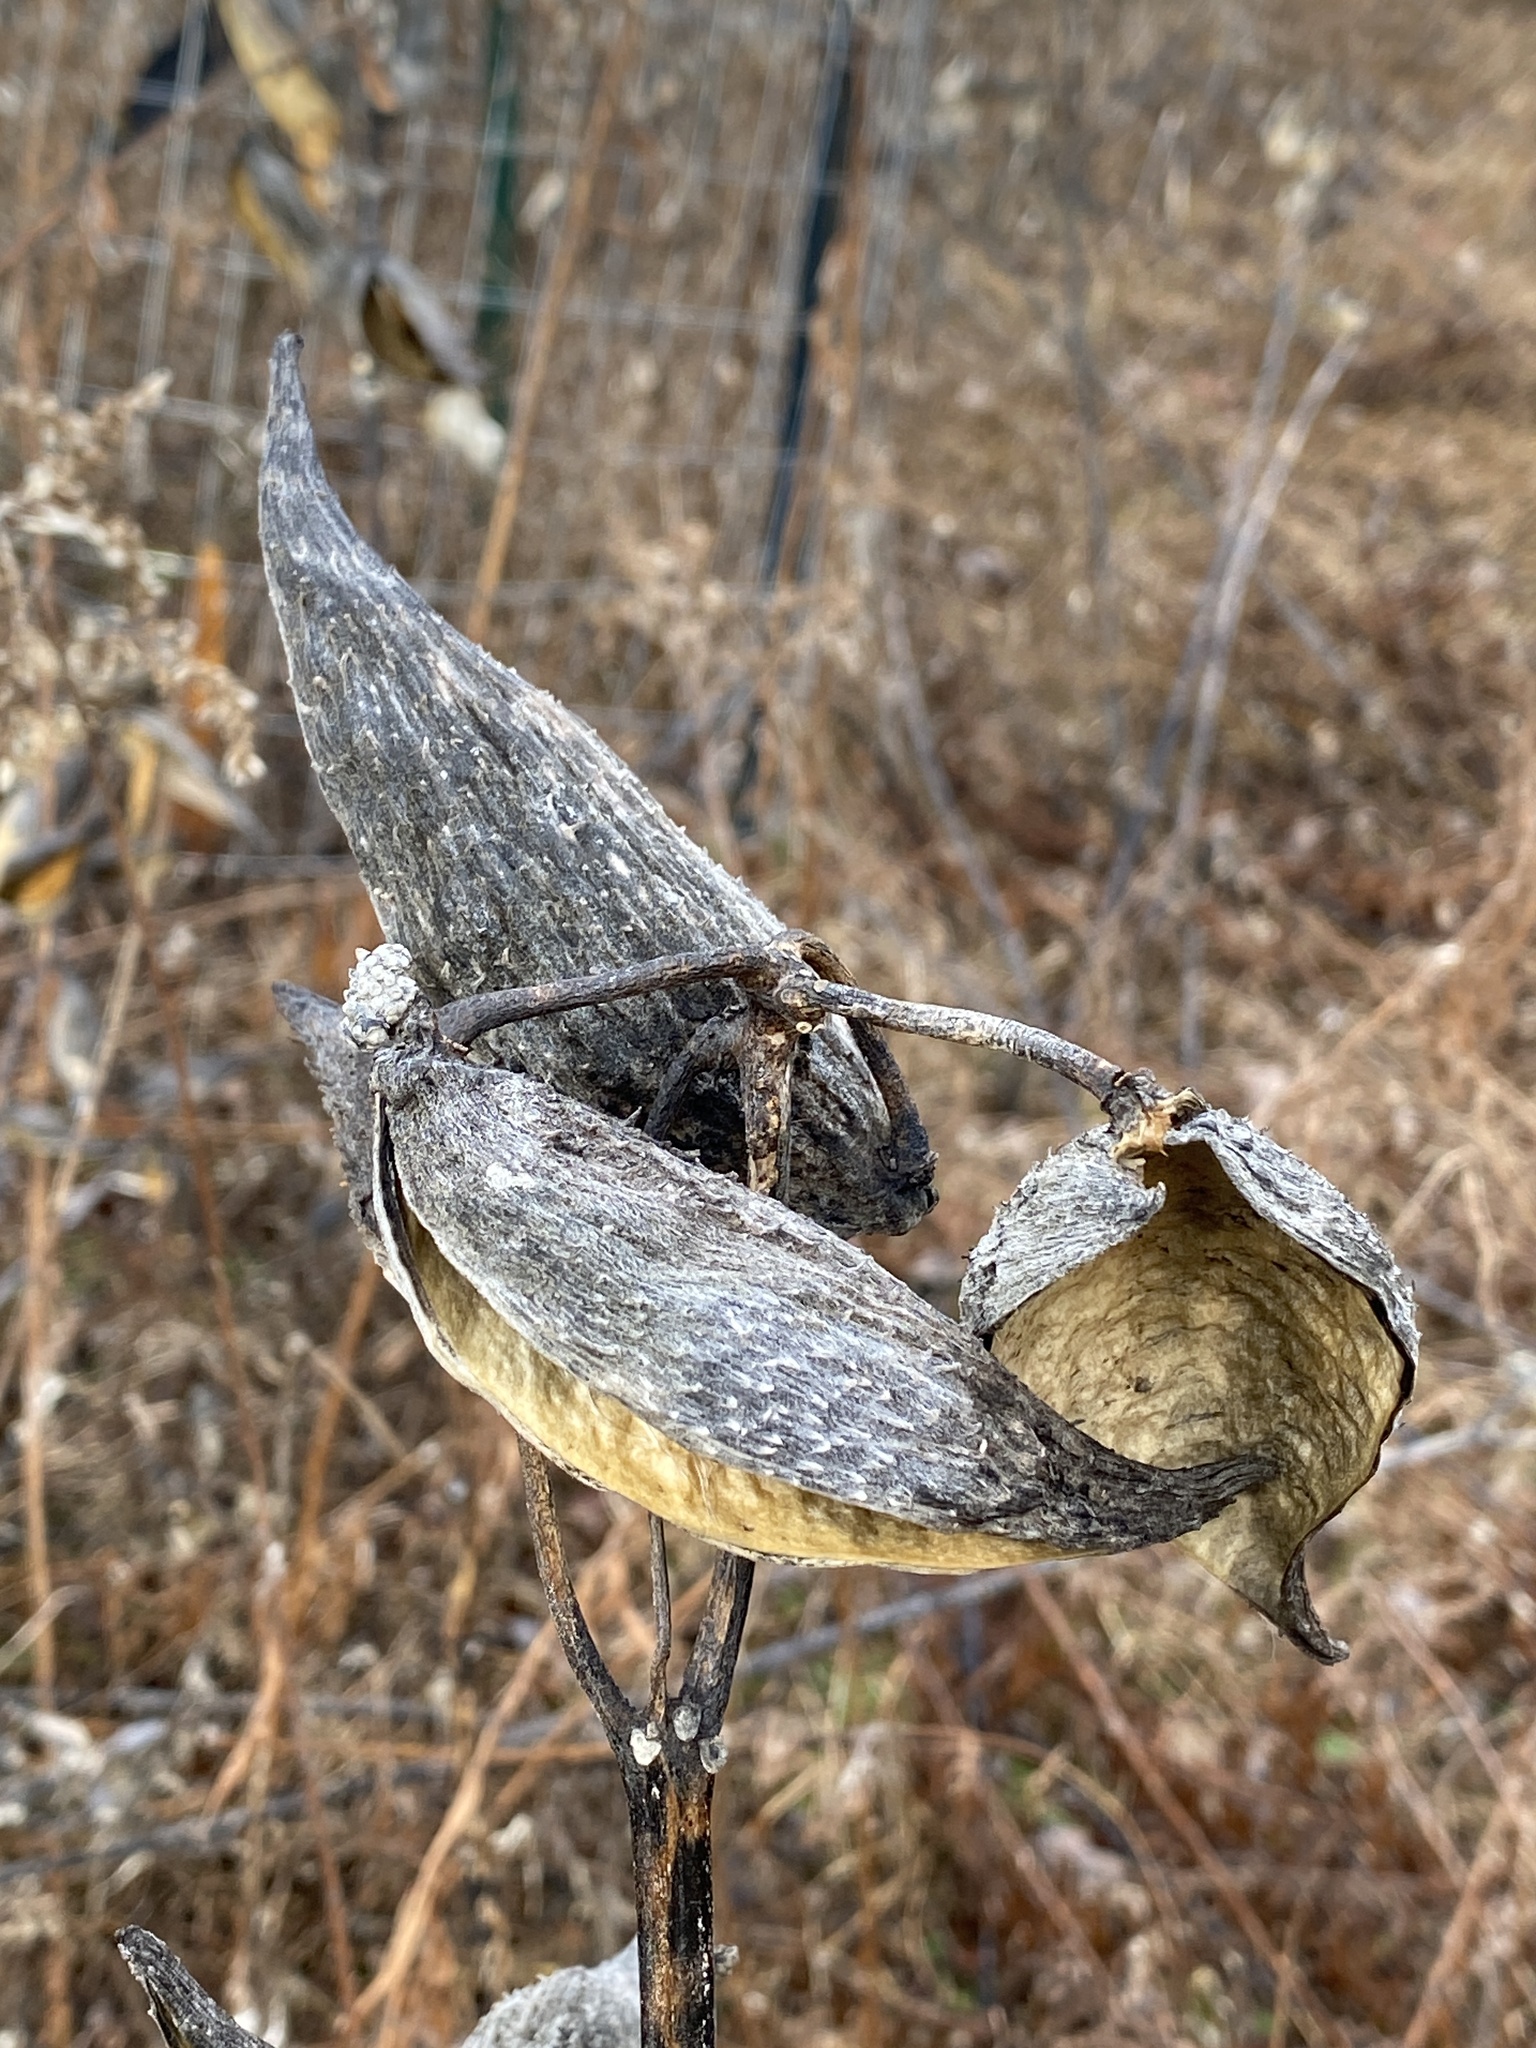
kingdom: Plantae
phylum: Tracheophyta
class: Magnoliopsida
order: Gentianales
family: Apocynaceae
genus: Asclepias
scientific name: Asclepias syriaca
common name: Common milkweed
